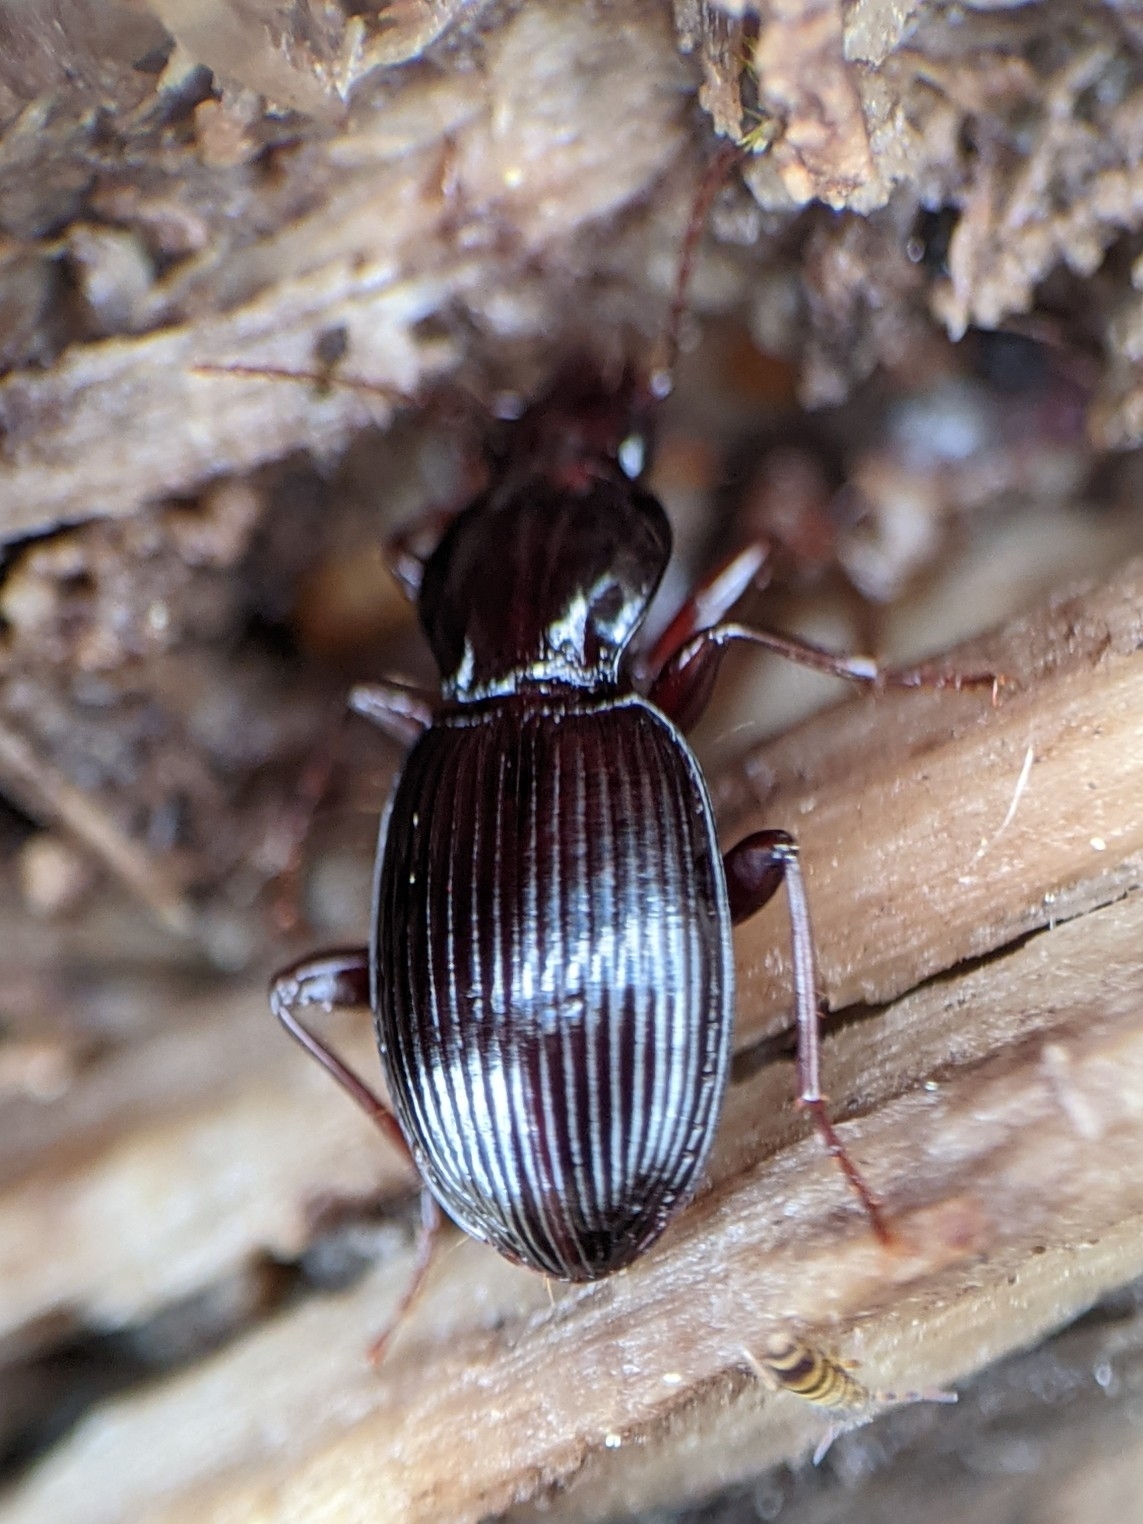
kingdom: Animalia
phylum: Arthropoda
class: Insecta
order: Coleoptera
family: Carabidae
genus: Gastrellarius
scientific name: Gastrellarius honestus
